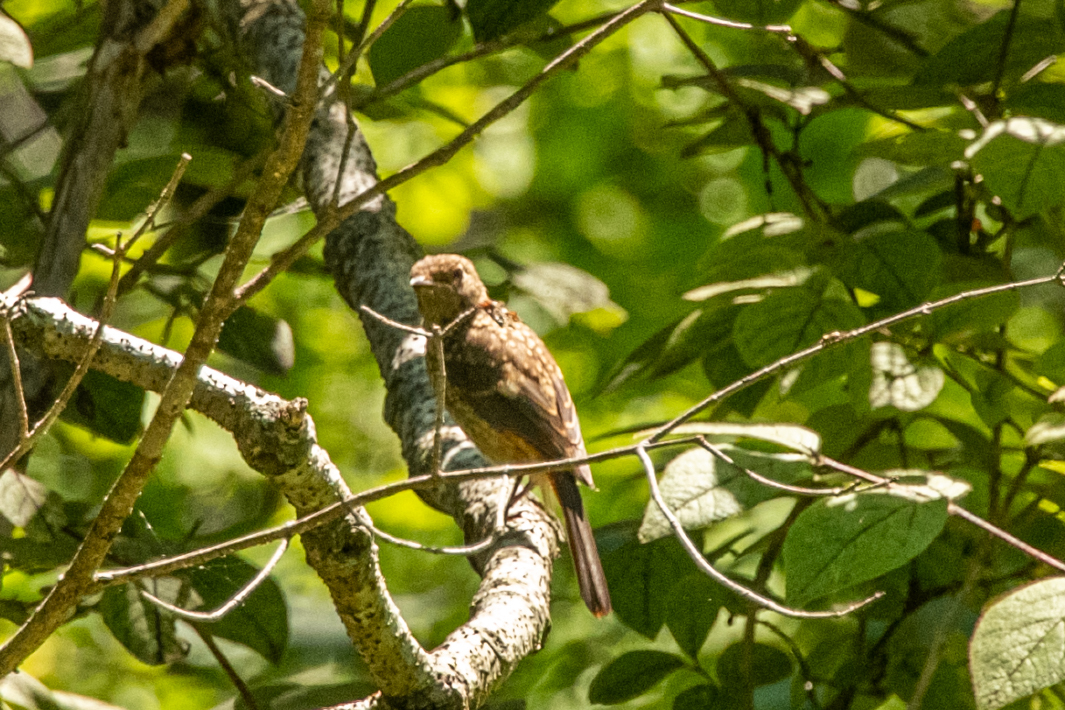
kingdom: Animalia
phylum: Chordata
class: Aves
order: Passeriformes
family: Muscicapidae
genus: Phoenicurus
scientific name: Phoenicurus auroreus
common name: Daurian redstart
